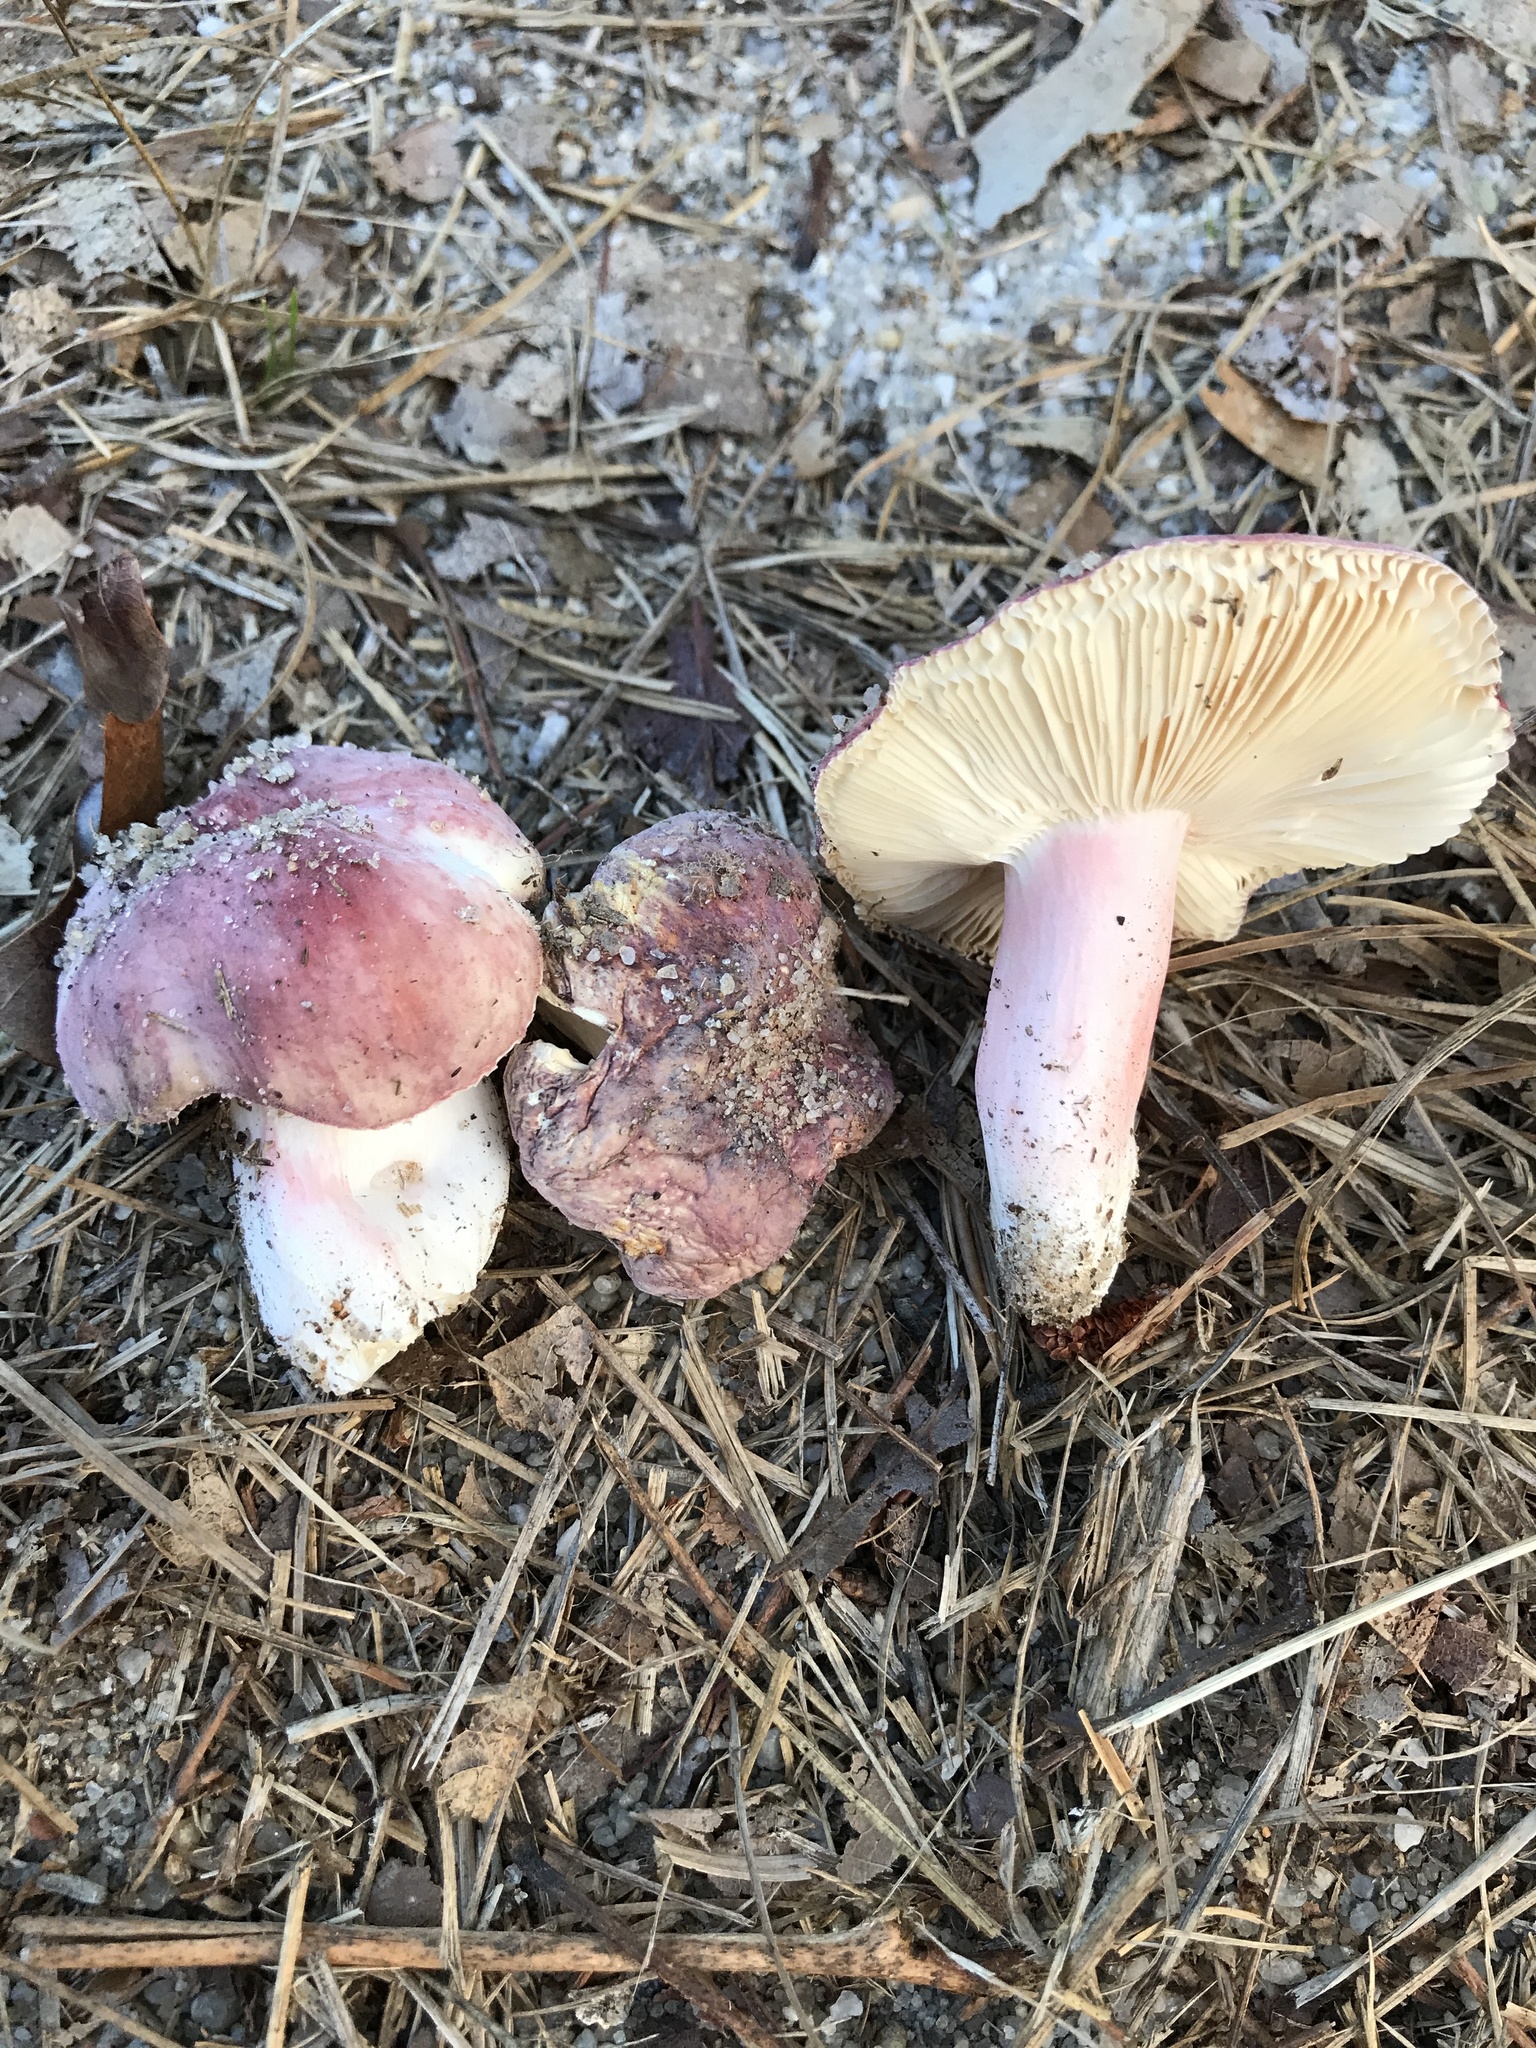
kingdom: Fungi
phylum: Basidiomycota
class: Agaricomycetes
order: Russulales
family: Russulaceae
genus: Russula
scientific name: Russula mariae
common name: Purple-bloom russula
